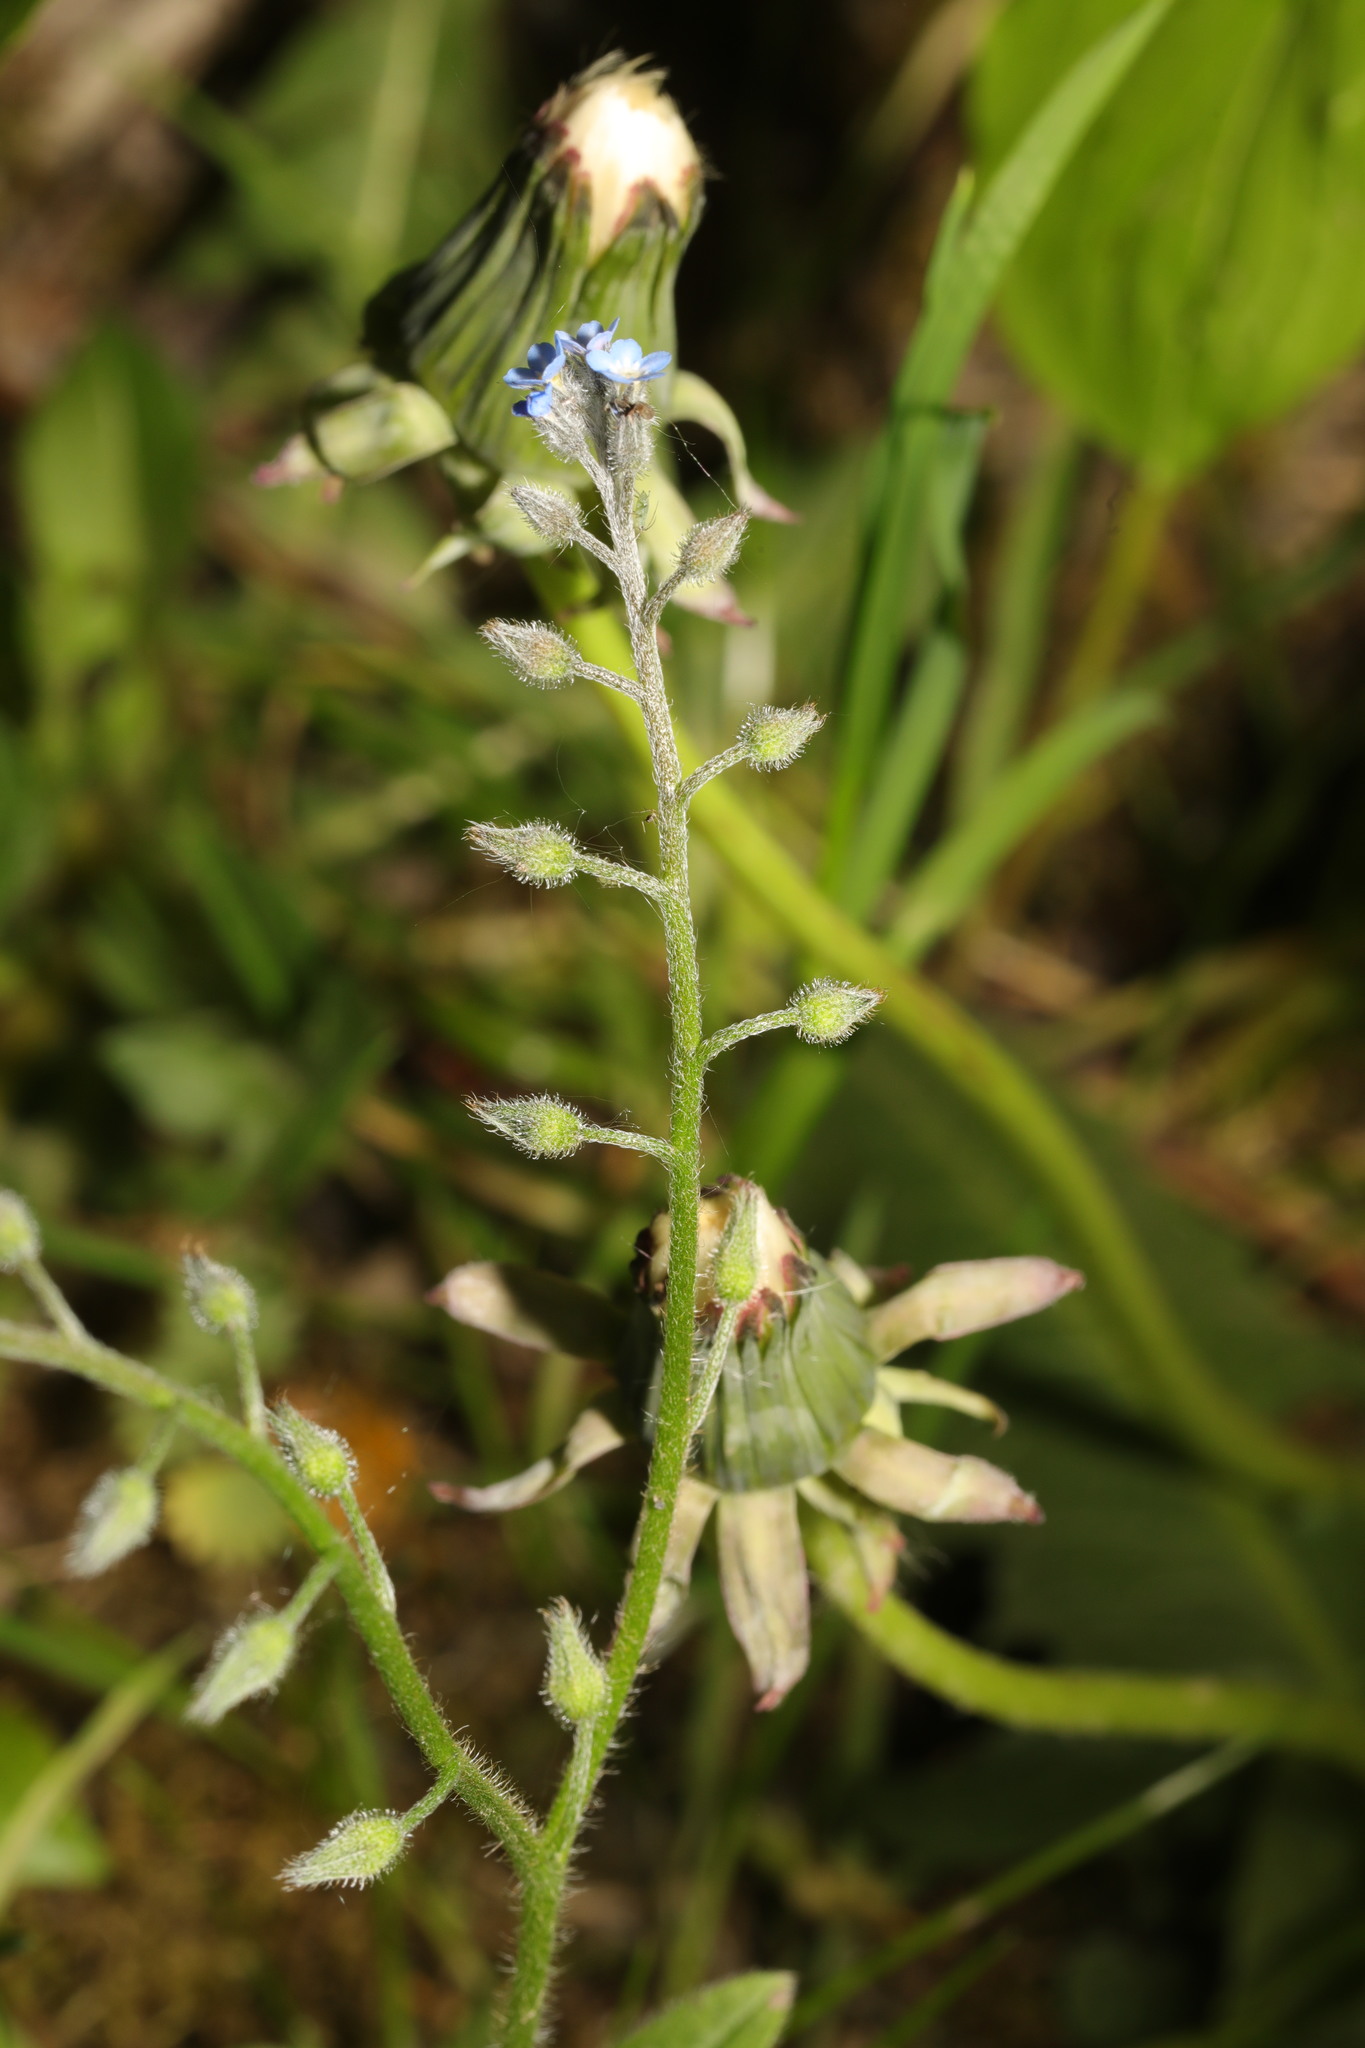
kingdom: Plantae
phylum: Tracheophyta
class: Magnoliopsida
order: Boraginales
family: Boraginaceae
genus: Myosotis
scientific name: Myosotis arvensis
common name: Field forget-me-not
